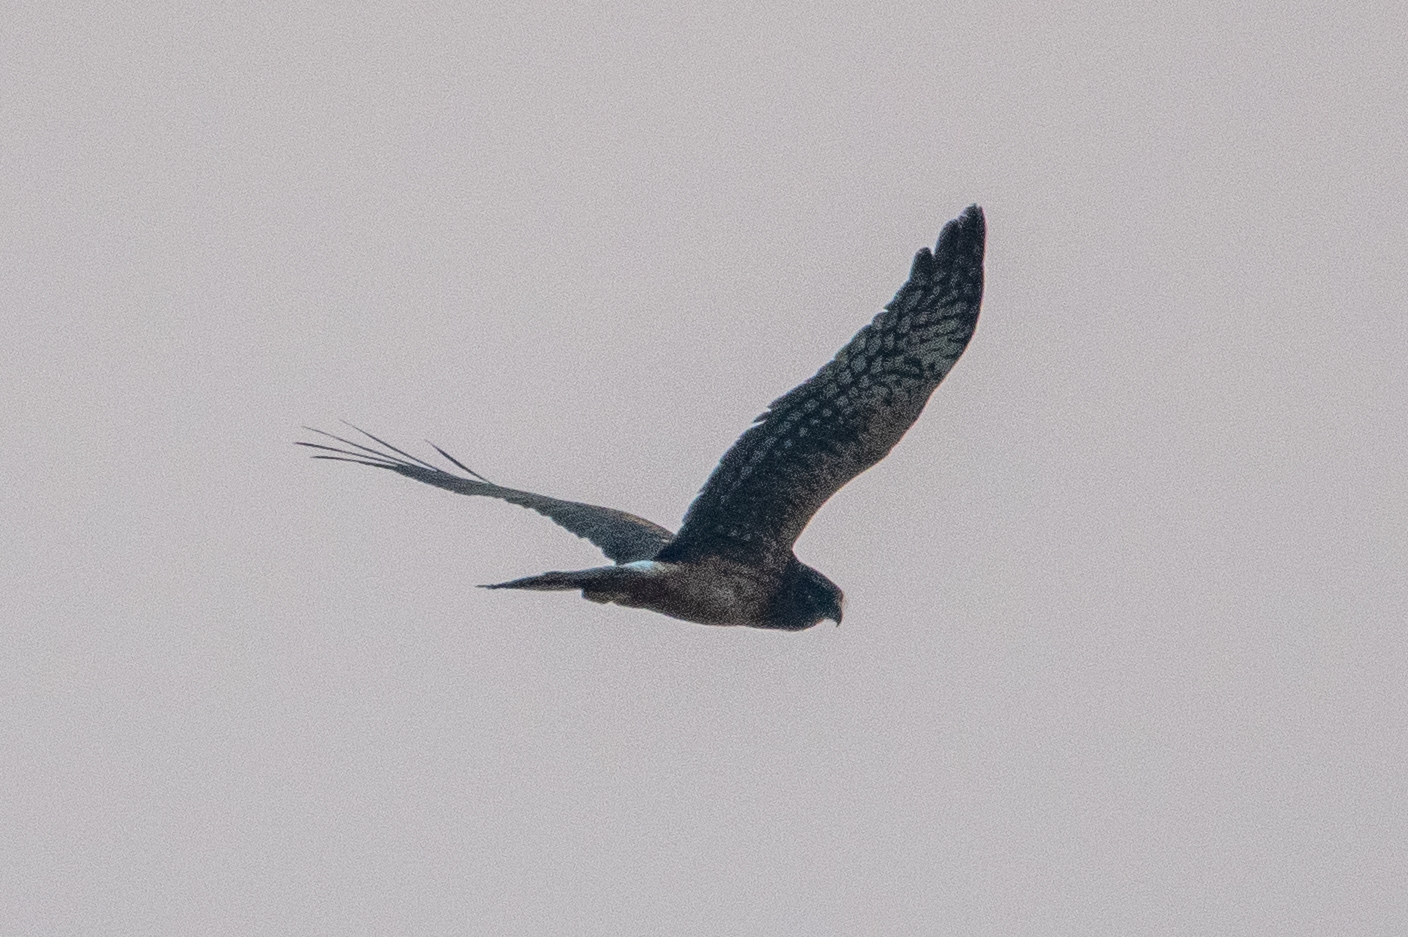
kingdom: Animalia
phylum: Chordata
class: Aves
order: Accipitriformes
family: Accipitridae
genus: Circus
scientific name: Circus cyaneus
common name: Hen harrier
